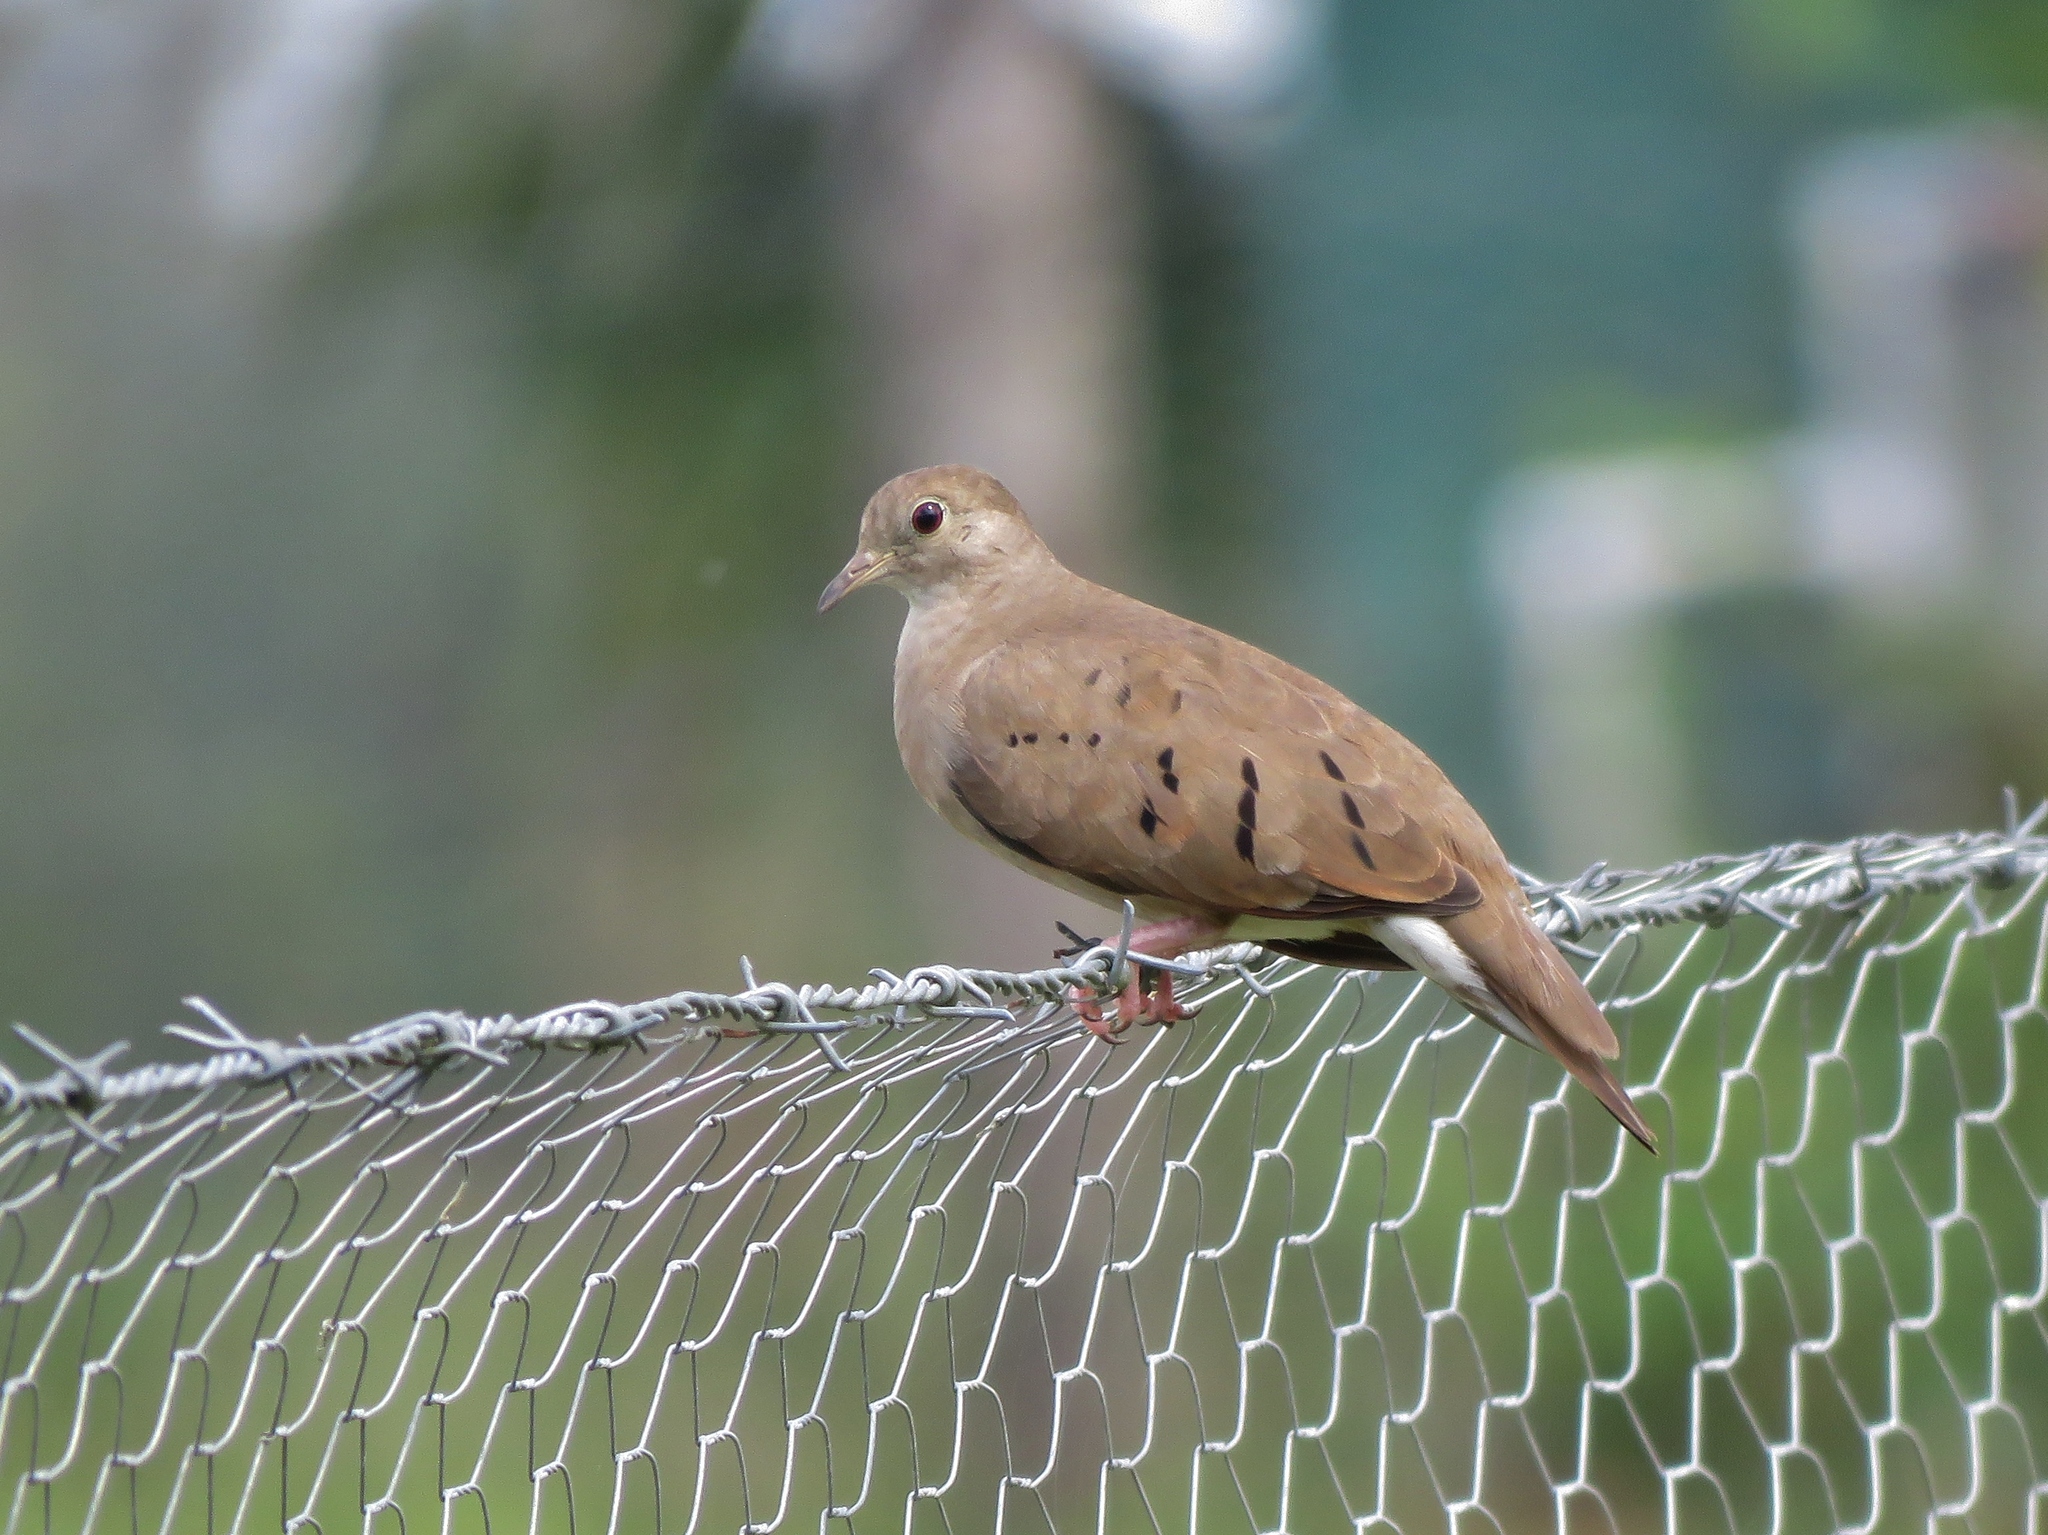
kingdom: Animalia
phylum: Chordata
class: Aves
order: Columbiformes
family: Columbidae
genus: Columbina
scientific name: Columbina talpacoti
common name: Ruddy ground dove
